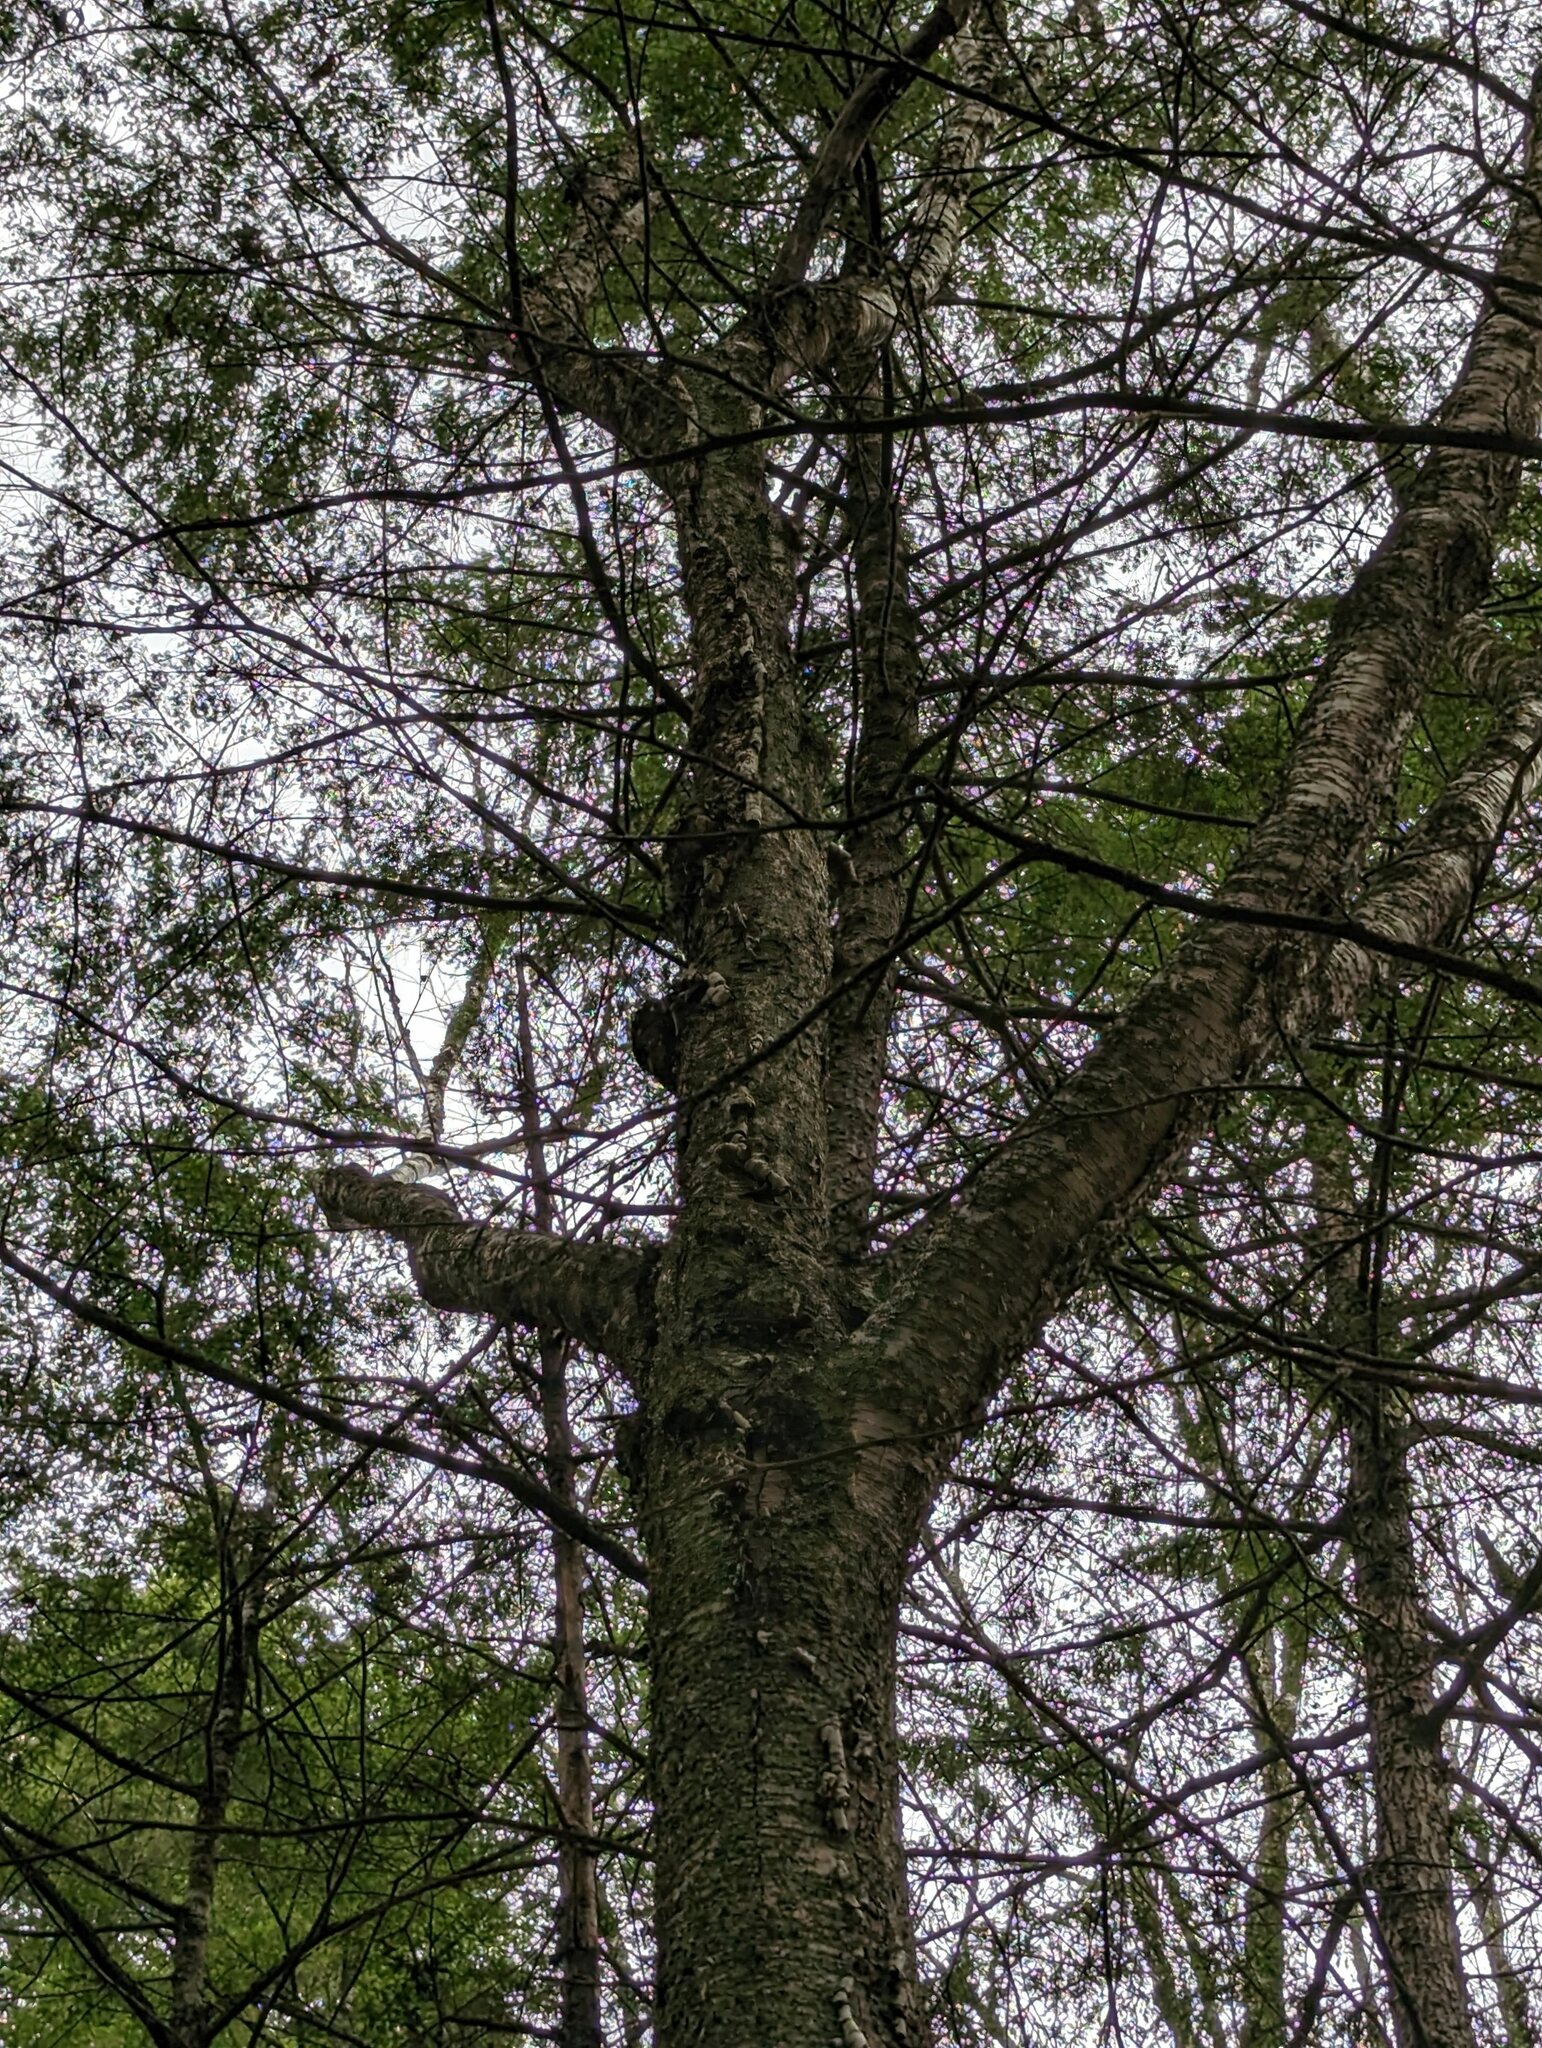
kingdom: Plantae
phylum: Tracheophyta
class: Magnoliopsida
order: Fagales
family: Betulaceae
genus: Betula
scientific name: Betula alleghaniensis
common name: Yellow birch
